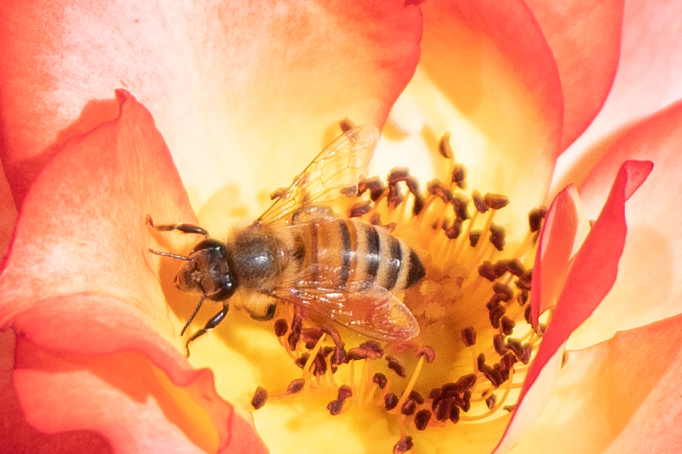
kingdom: Animalia
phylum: Arthropoda
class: Insecta
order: Hymenoptera
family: Apidae
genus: Apis
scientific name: Apis mellifera
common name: Honey bee
